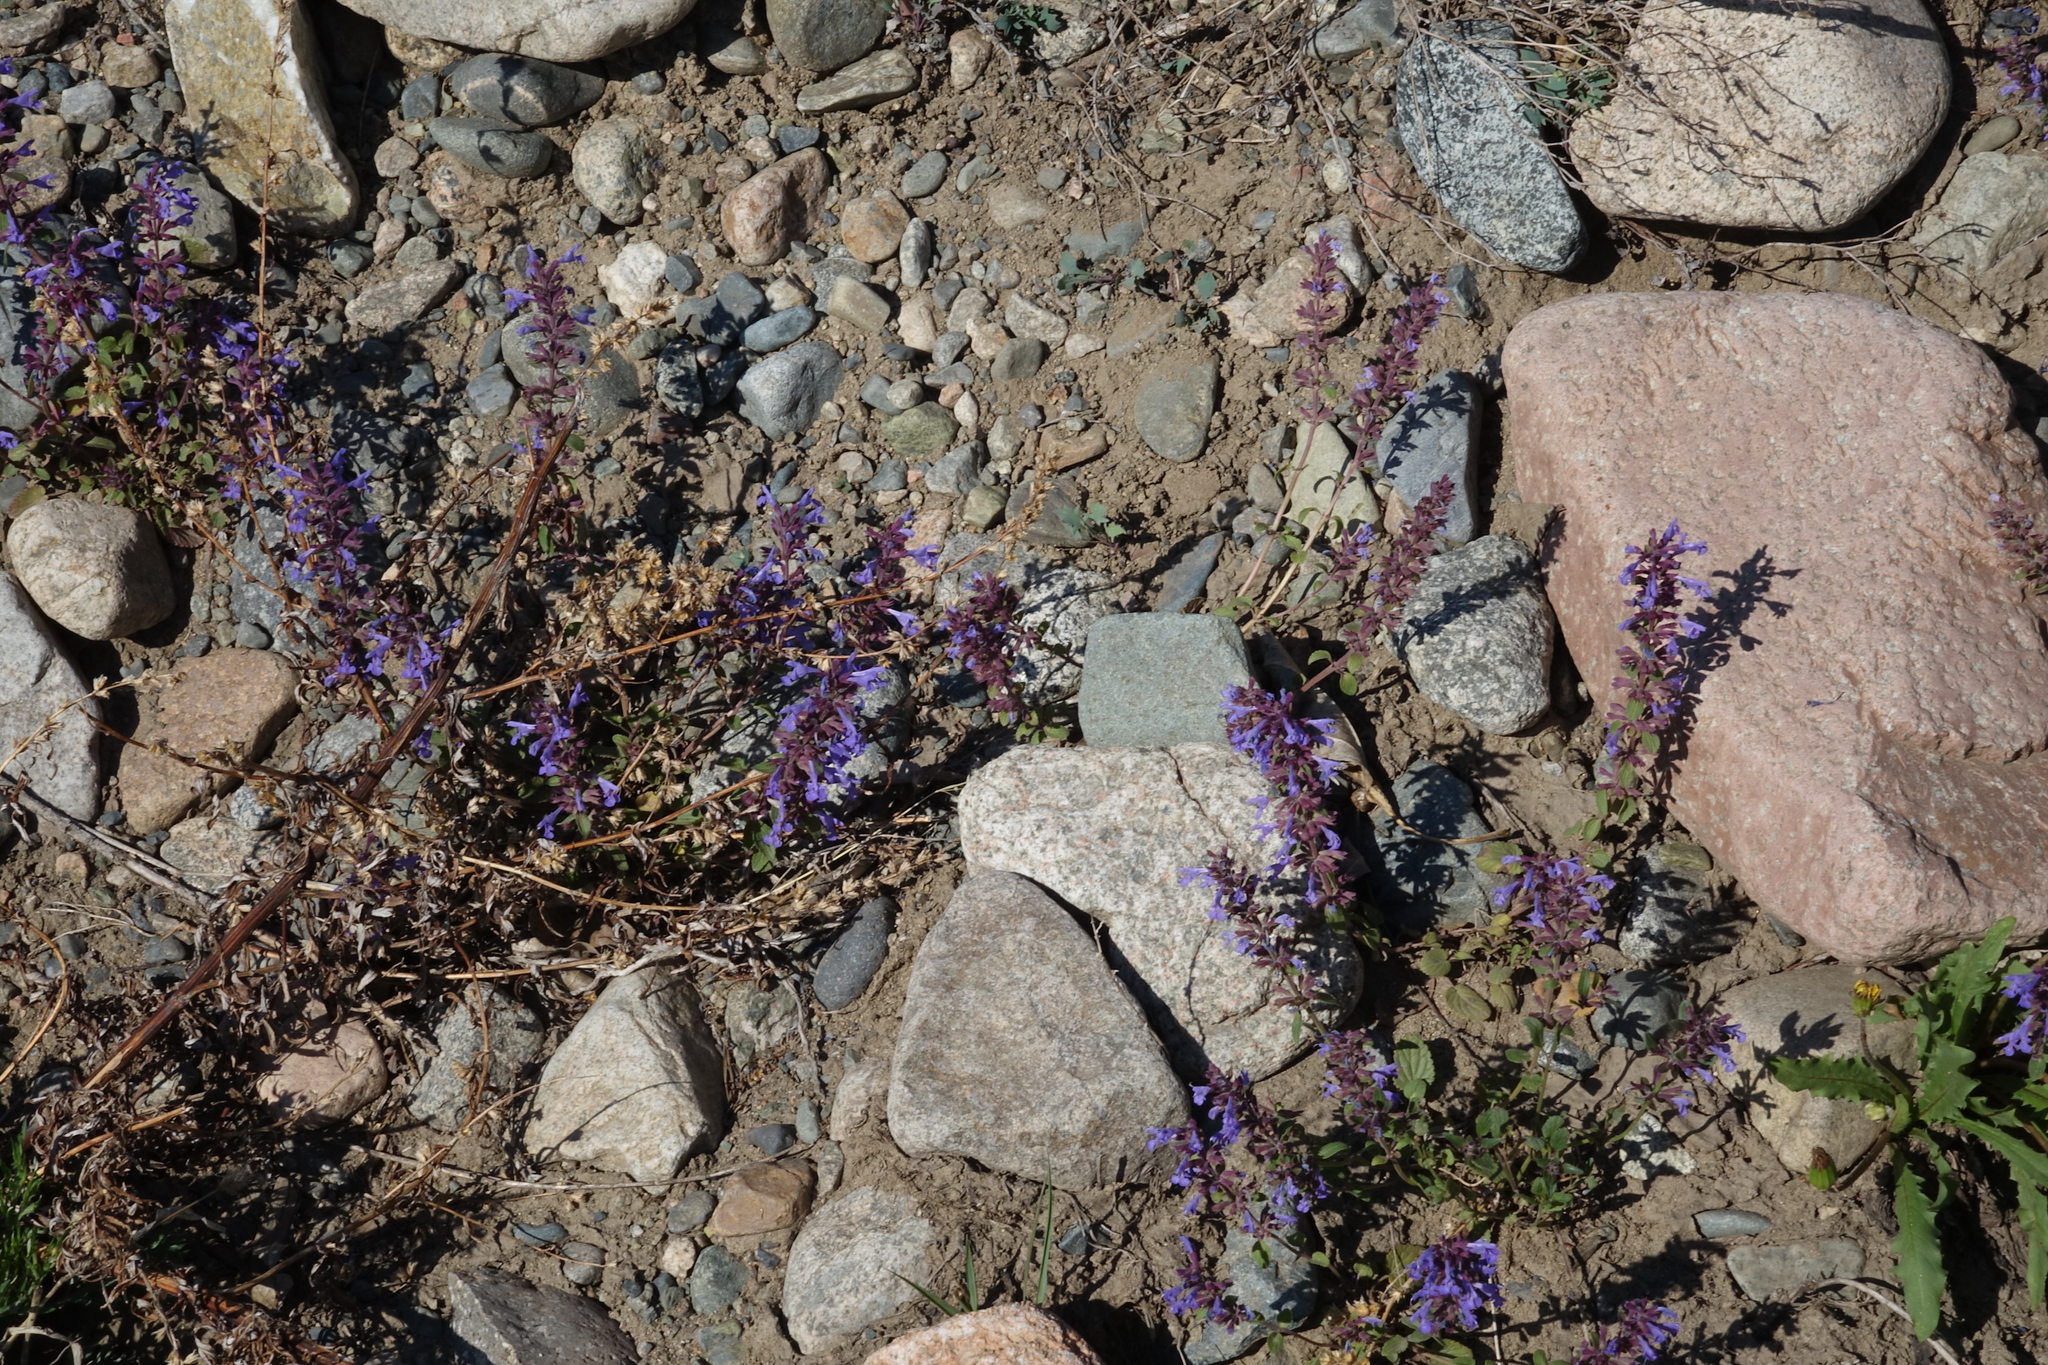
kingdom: Plantae
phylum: Tracheophyta
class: Magnoliopsida
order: Lamiales
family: Lamiaceae
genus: Dracocephalum
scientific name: Dracocephalum nutans
